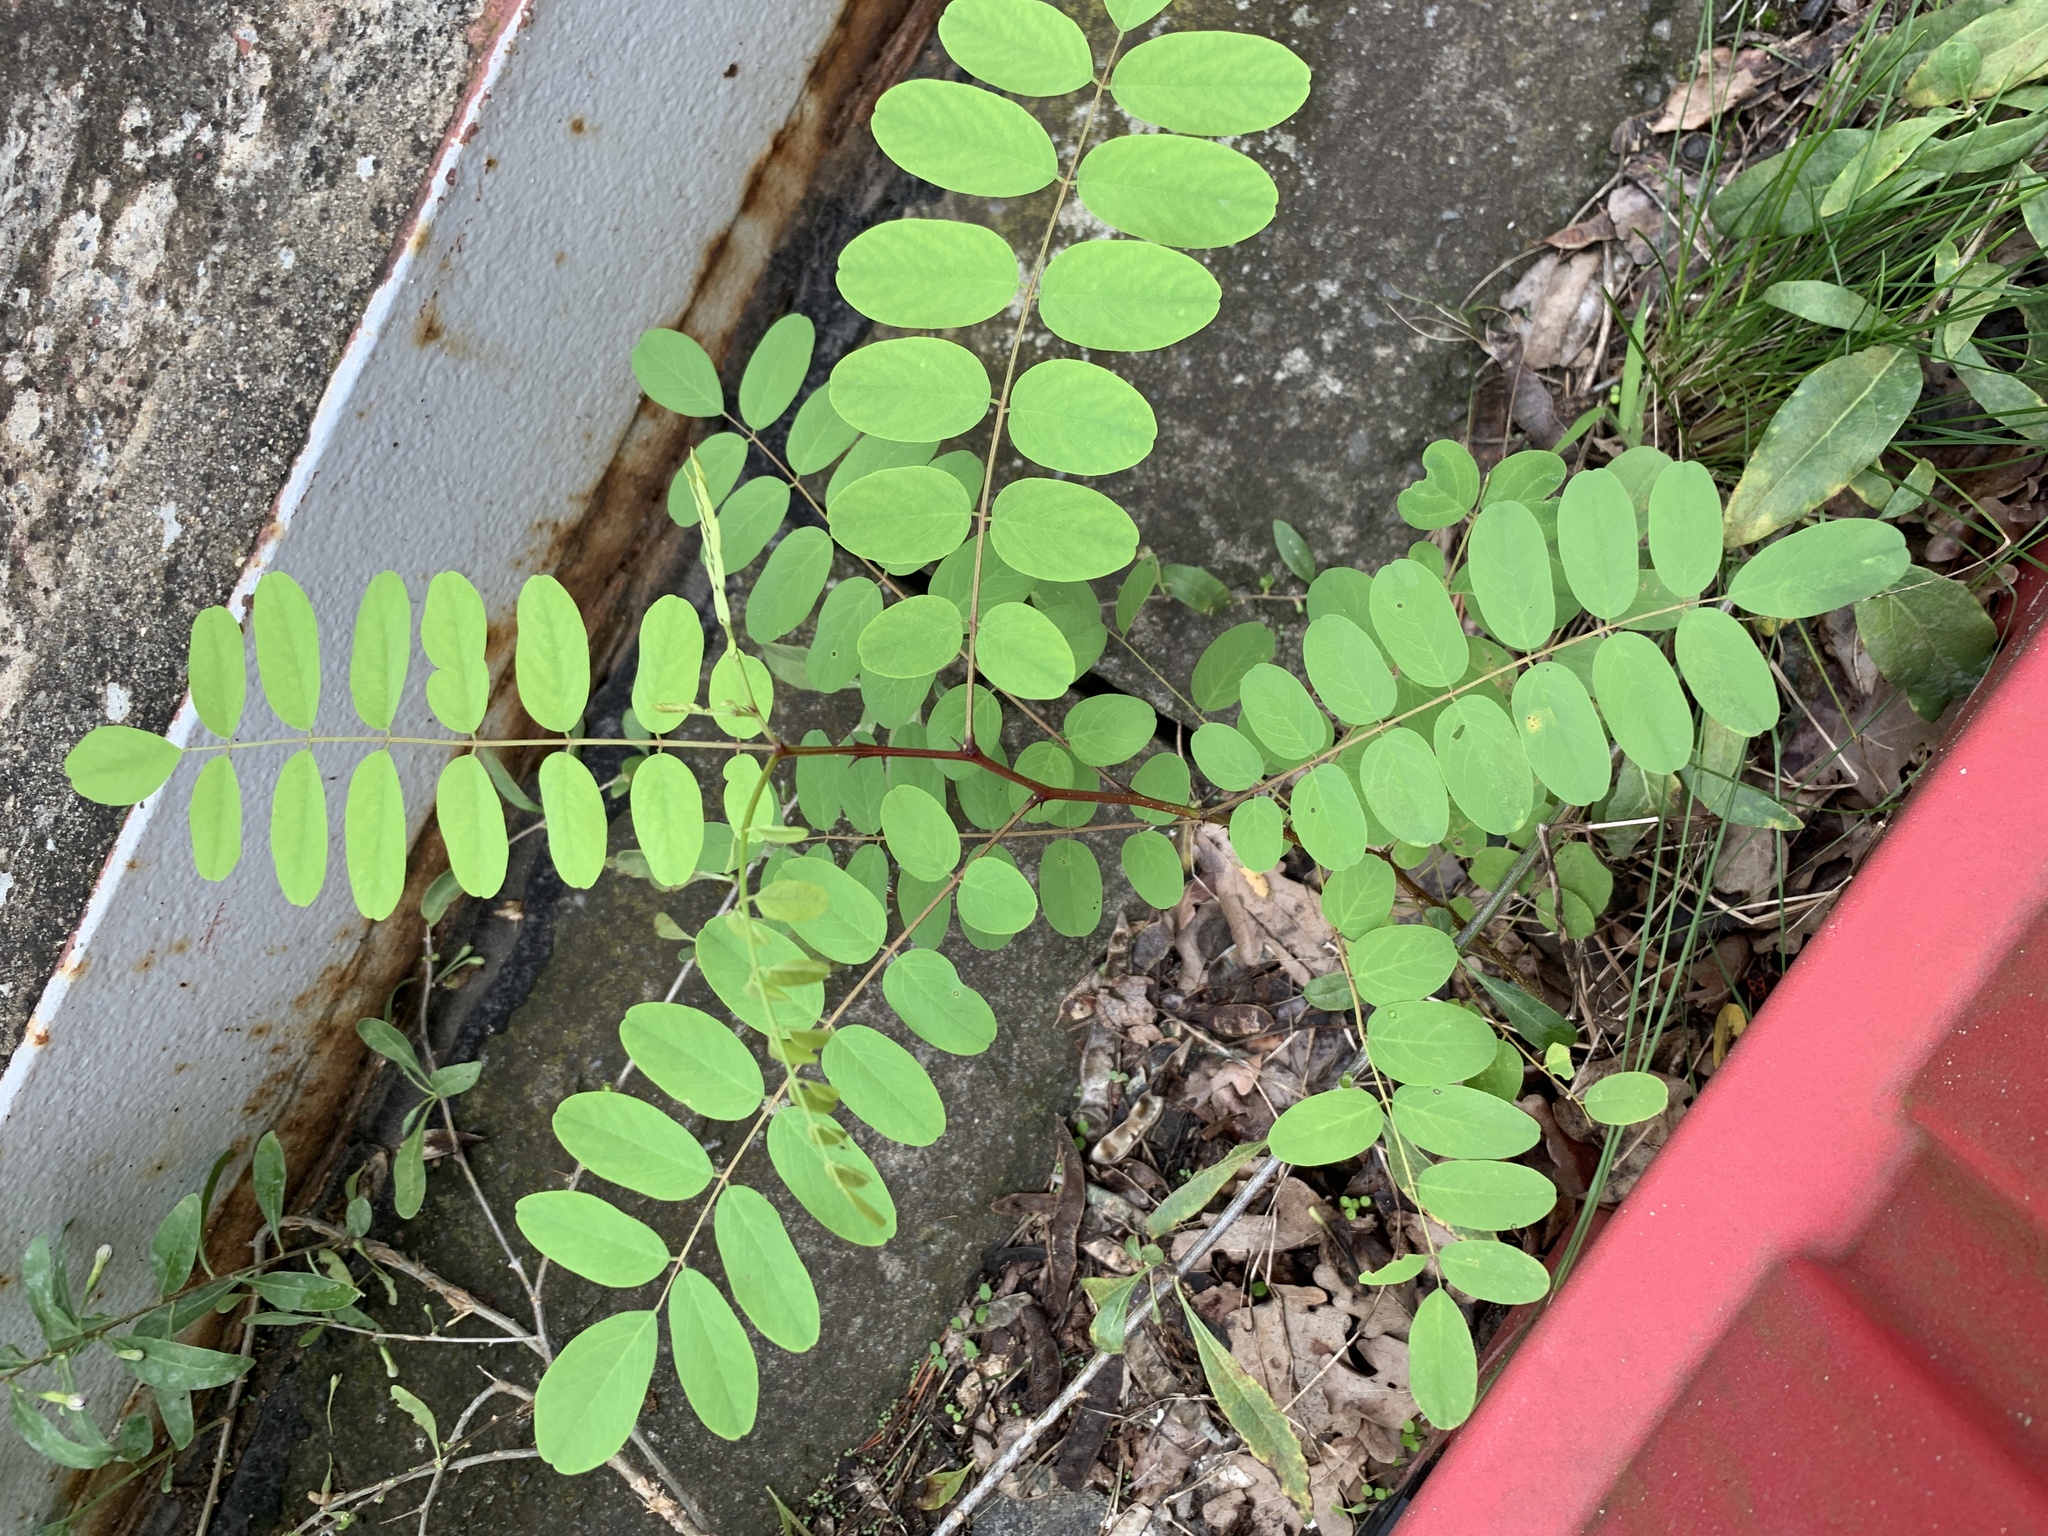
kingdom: Plantae
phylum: Tracheophyta
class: Magnoliopsida
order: Fabales
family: Fabaceae
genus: Robinia
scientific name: Robinia pseudoacacia
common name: Black locust
